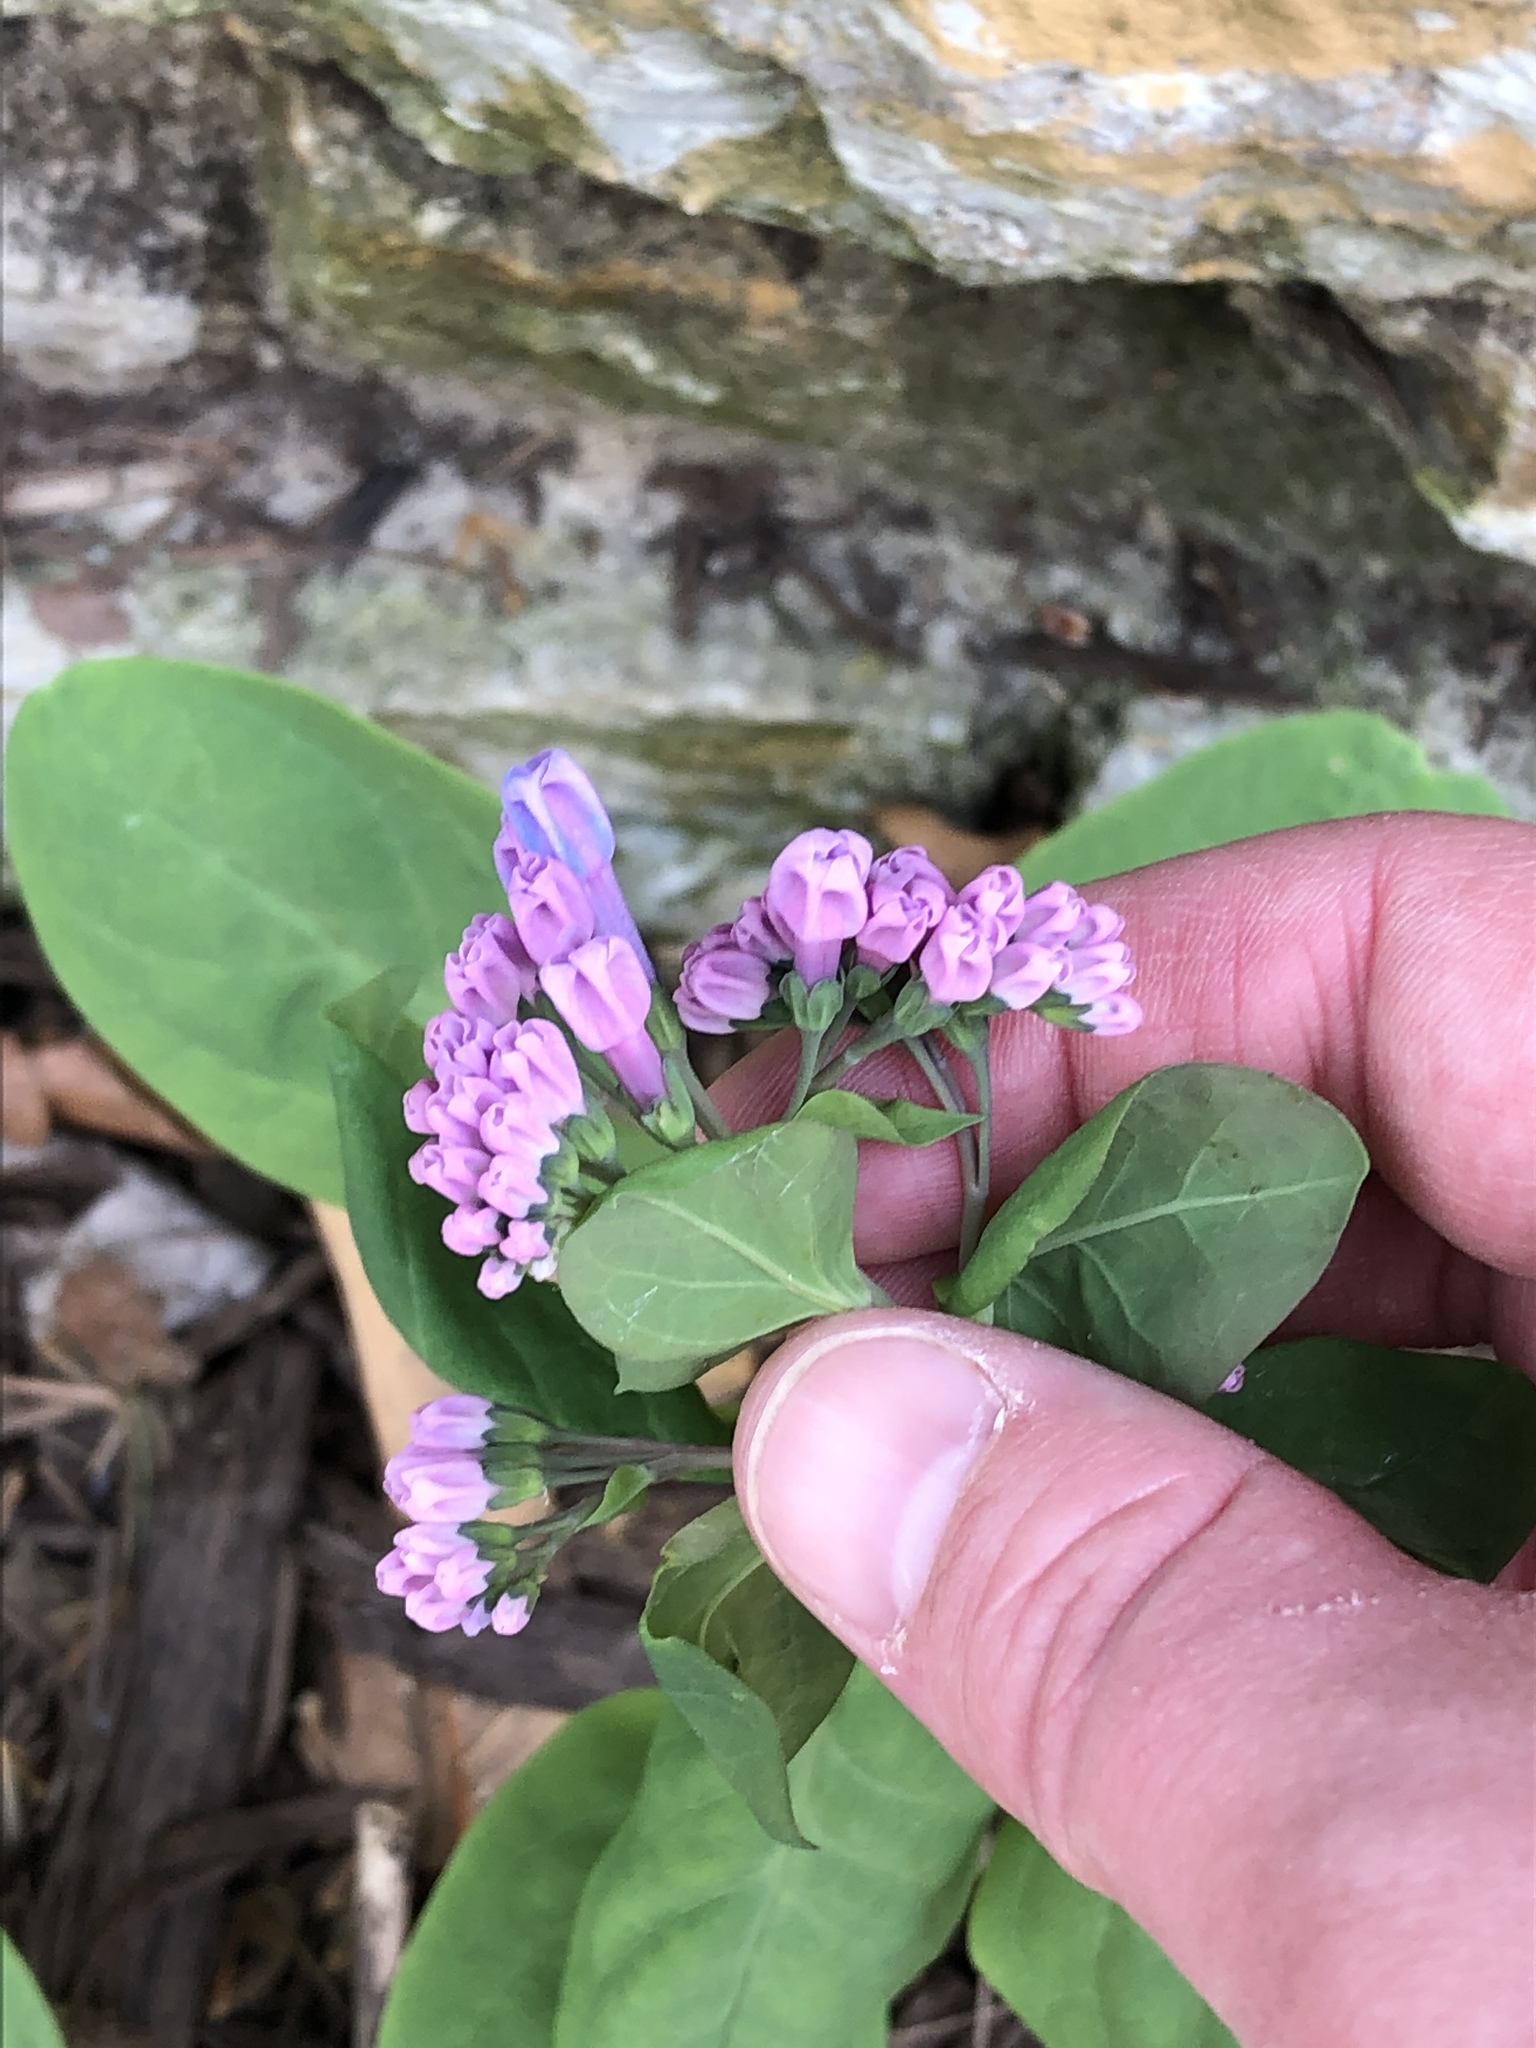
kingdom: Plantae
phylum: Tracheophyta
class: Magnoliopsida
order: Boraginales
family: Boraginaceae
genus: Mertensia
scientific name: Mertensia virginica
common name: Virginia bluebells
